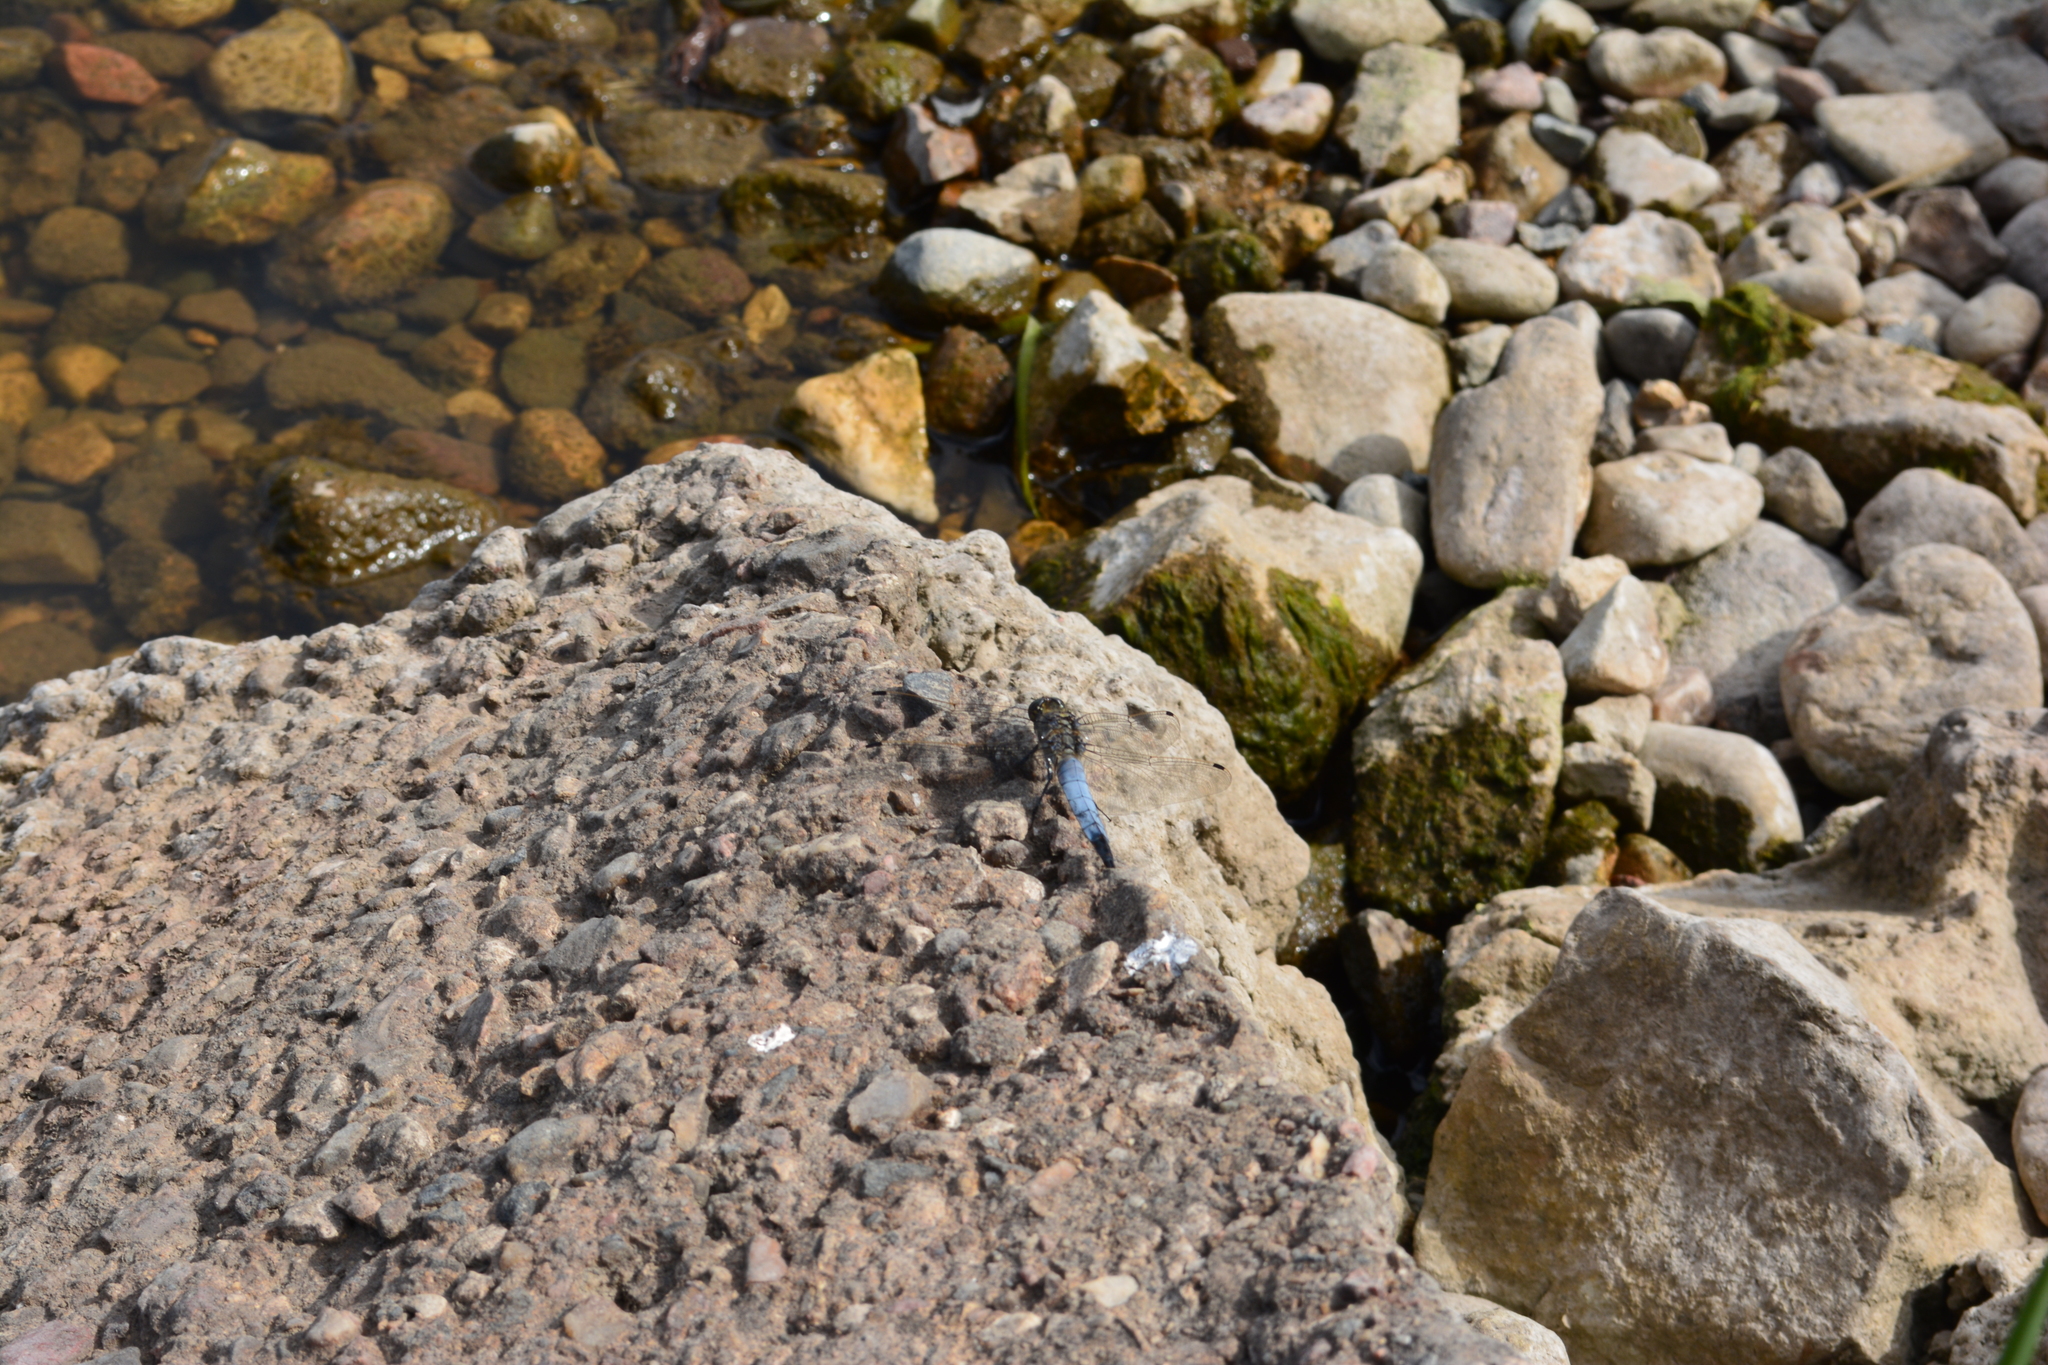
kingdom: Animalia
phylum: Arthropoda
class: Insecta
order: Odonata
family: Libellulidae
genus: Orthetrum
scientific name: Orthetrum cancellatum
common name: Black-tailed skimmer
